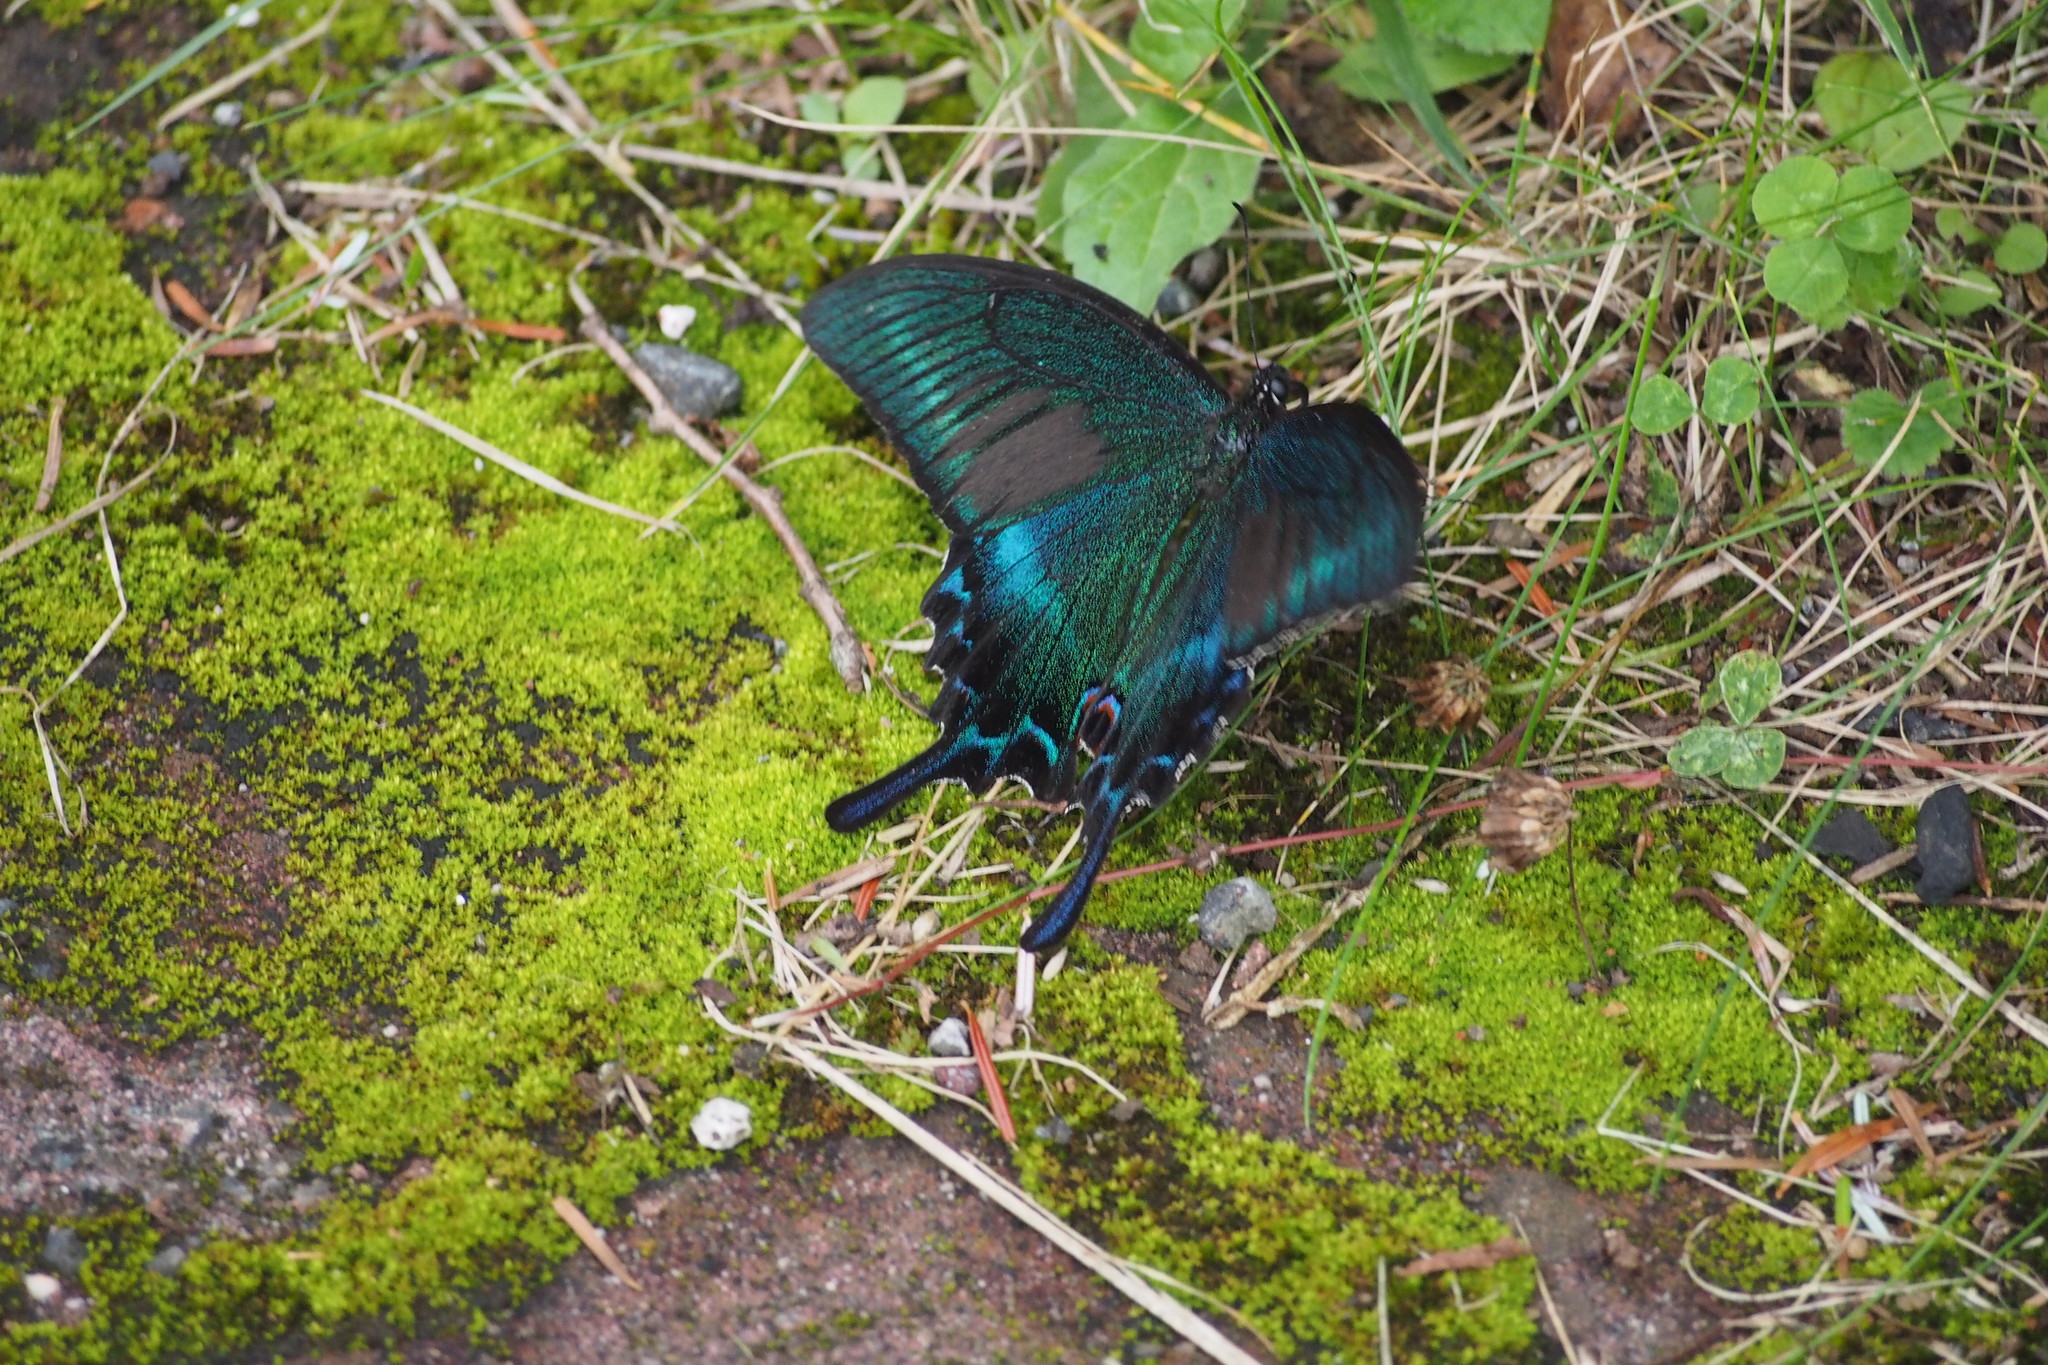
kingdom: Animalia
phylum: Arthropoda
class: Insecta
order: Lepidoptera
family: Papilionidae
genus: Papilio
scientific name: Papilio maackii
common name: Alpine black swallowtail
